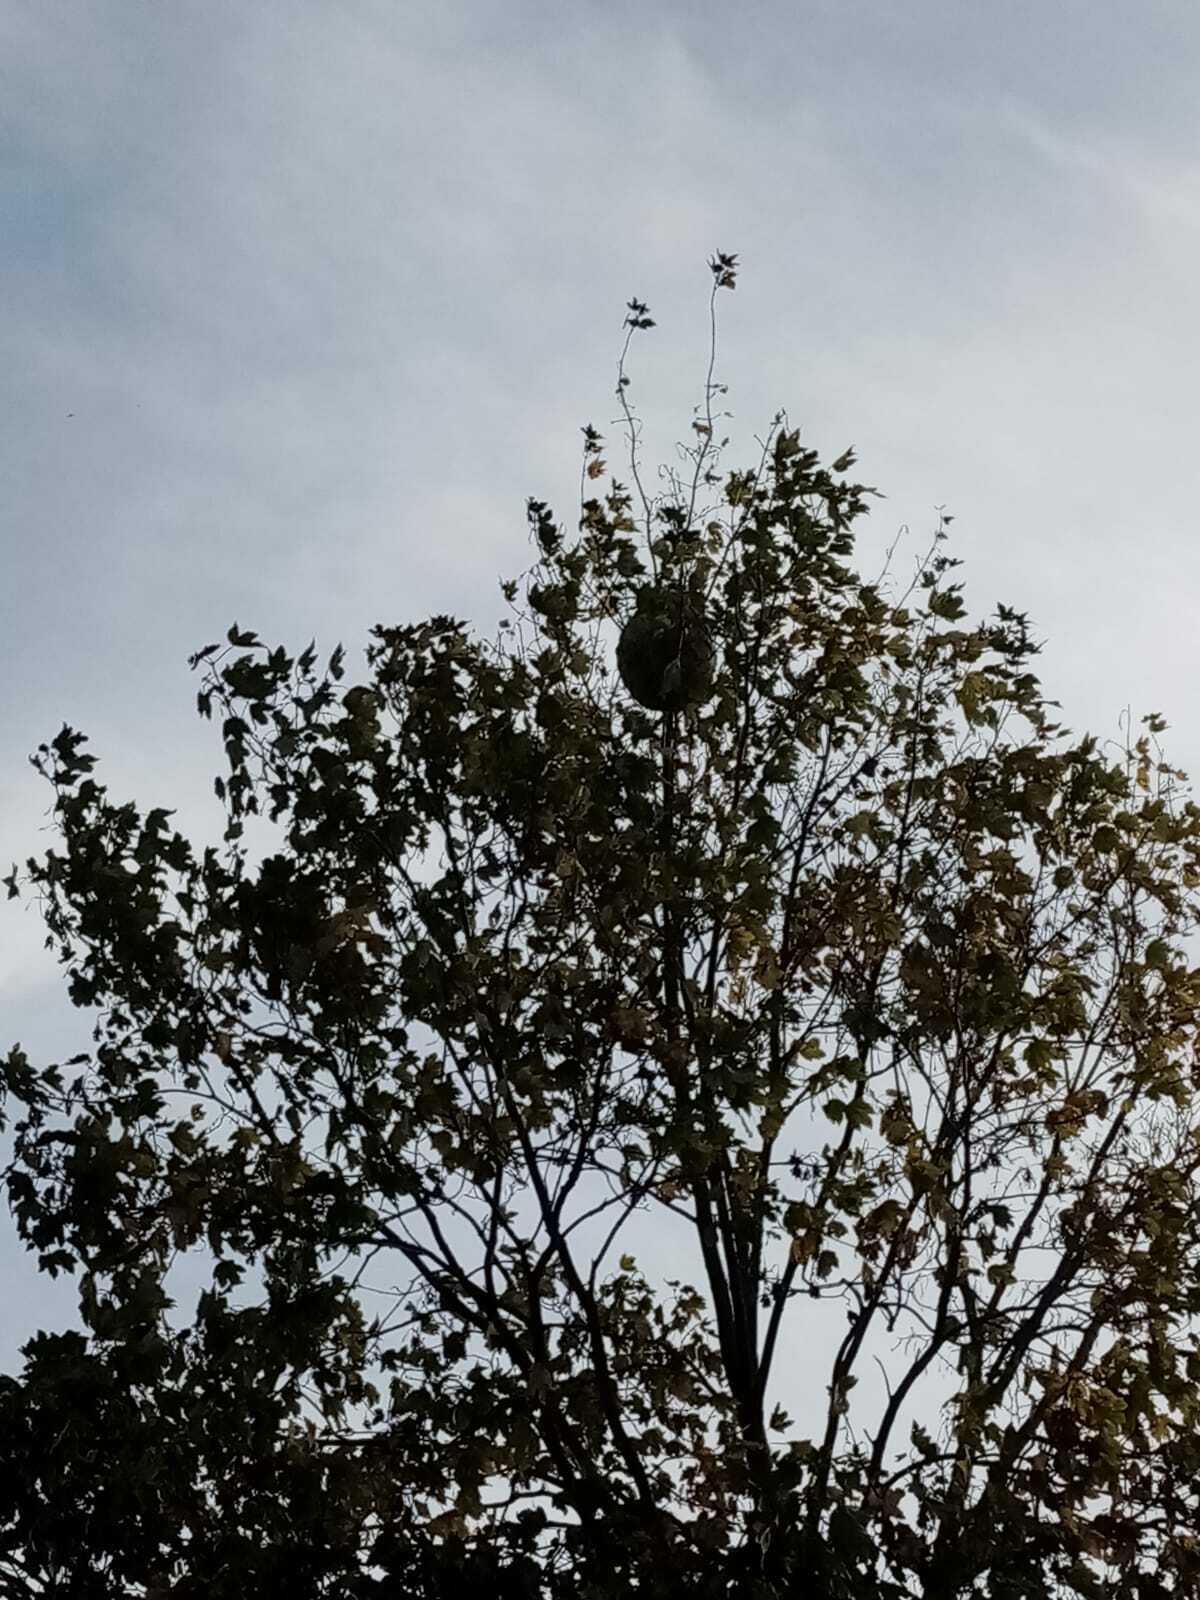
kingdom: Animalia
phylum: Arthropoda
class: Insecta
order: Hymenoptera
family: Vespidae
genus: Vespa
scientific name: Vespa velutina
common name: Asian hornet
